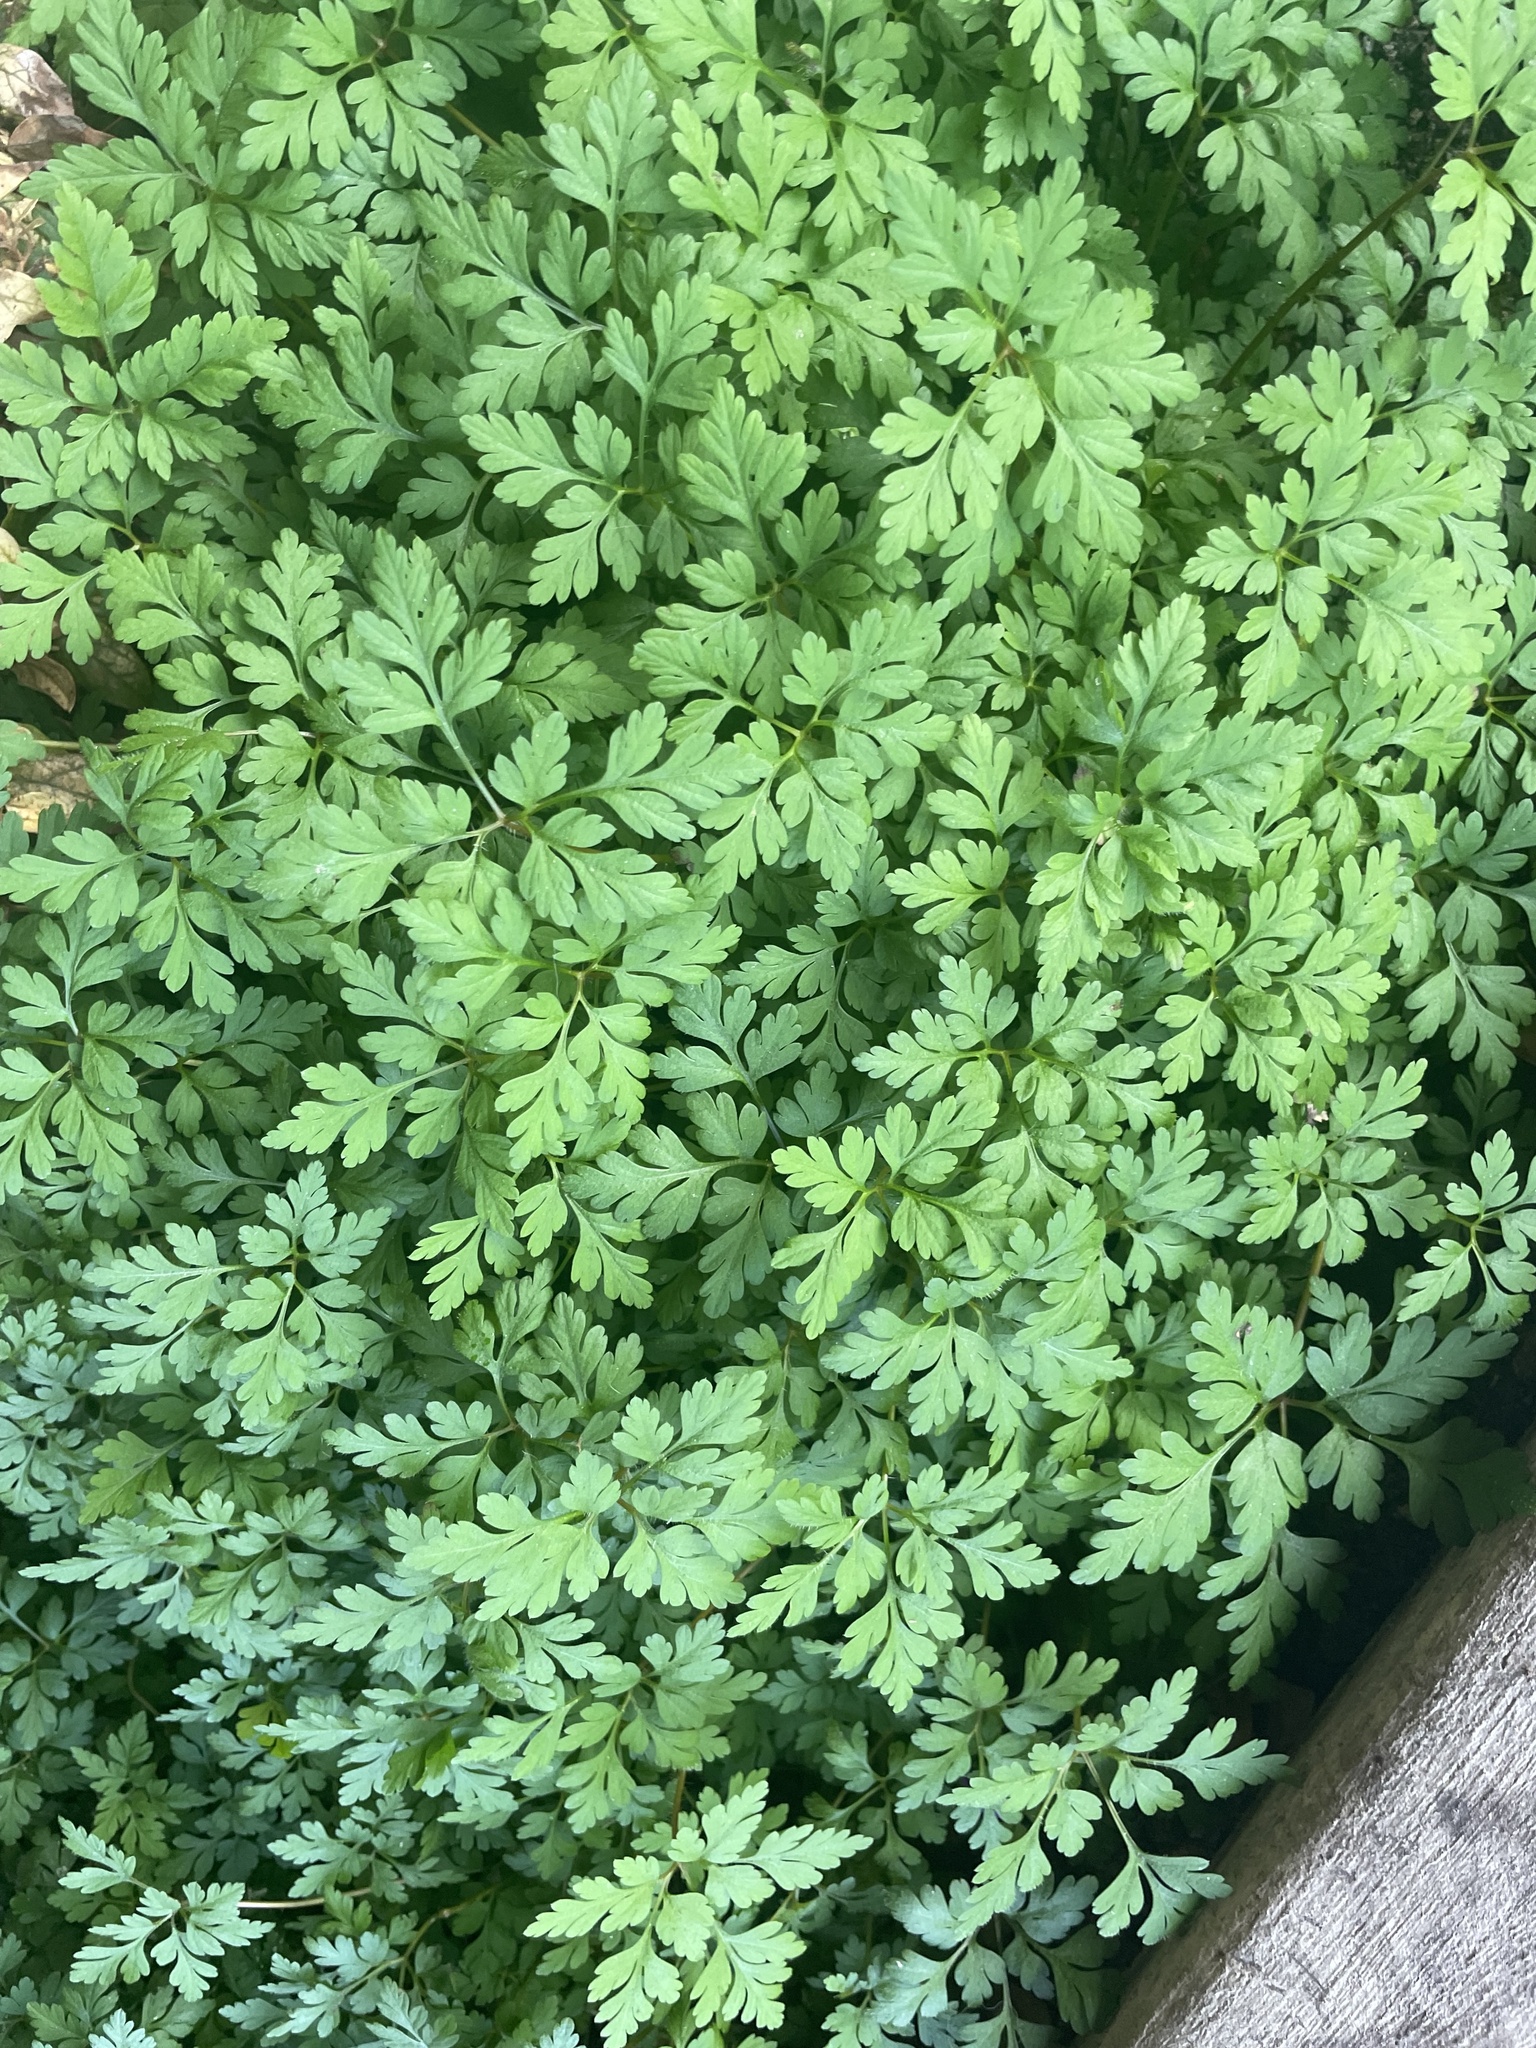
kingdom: Plantae
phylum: Tracheophyta
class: Magnoliopsida
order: Geraniales
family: Geraniaceae
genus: Geranium
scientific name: Geranium
